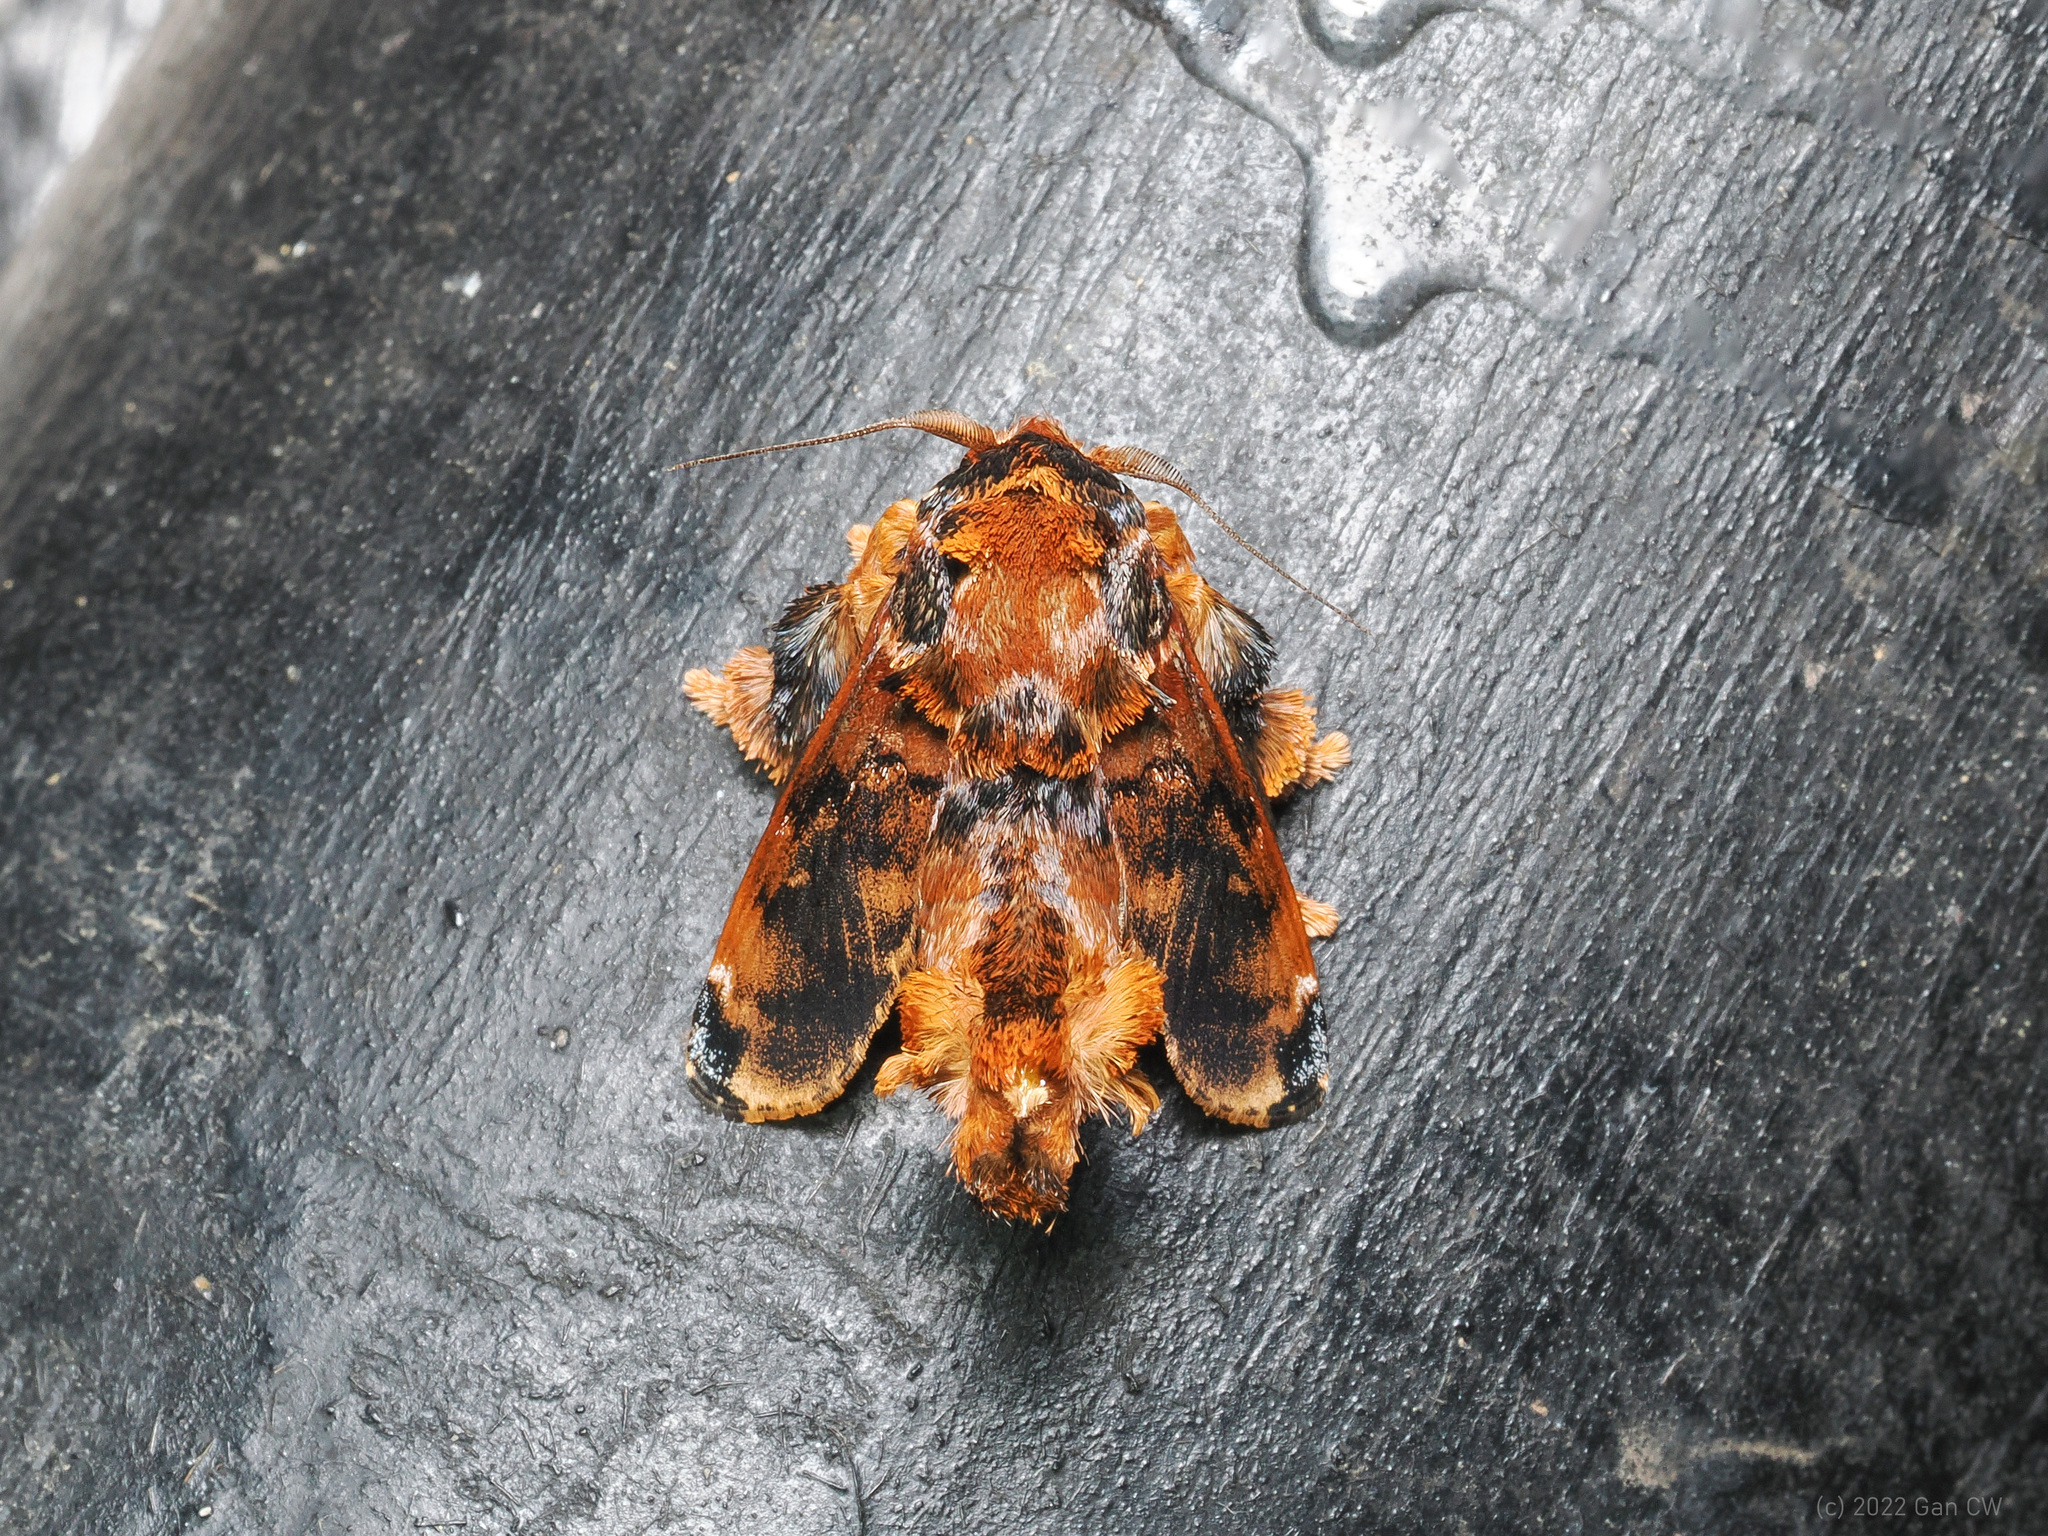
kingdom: Animalia
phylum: Arthropoda
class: Insecta
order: Lepidoptera
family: Limacodidae
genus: Cheromettia
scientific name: Cheromettia sumatrensis
